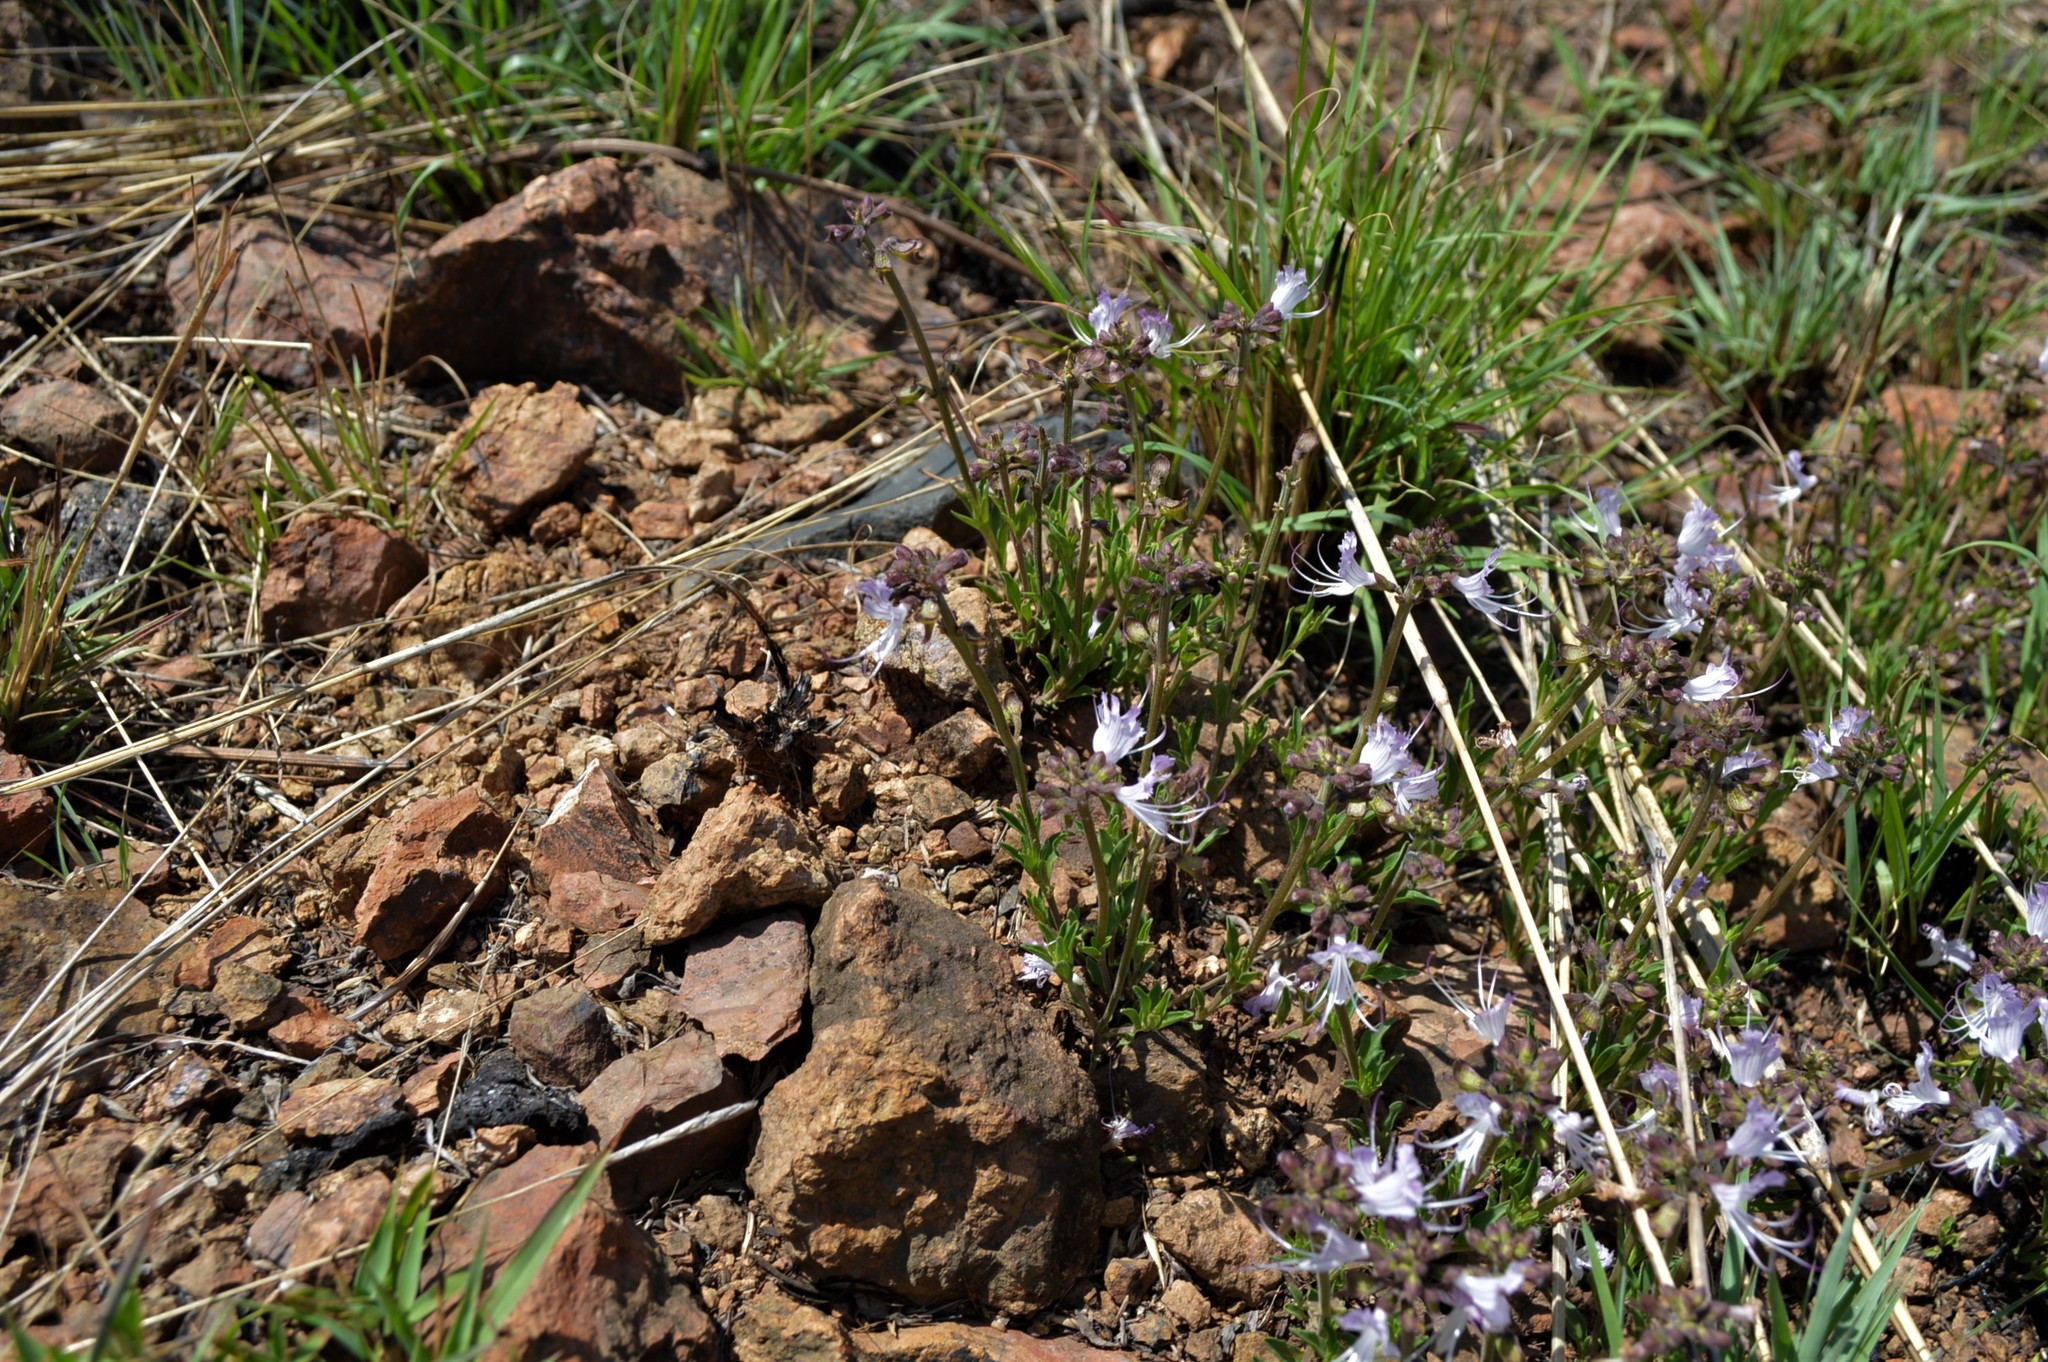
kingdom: Plantae
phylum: Tracheophyta
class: Magnoliopsida
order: Lamiales
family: Lamiaceae
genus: Ocimum
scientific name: Ocimum obovatum
